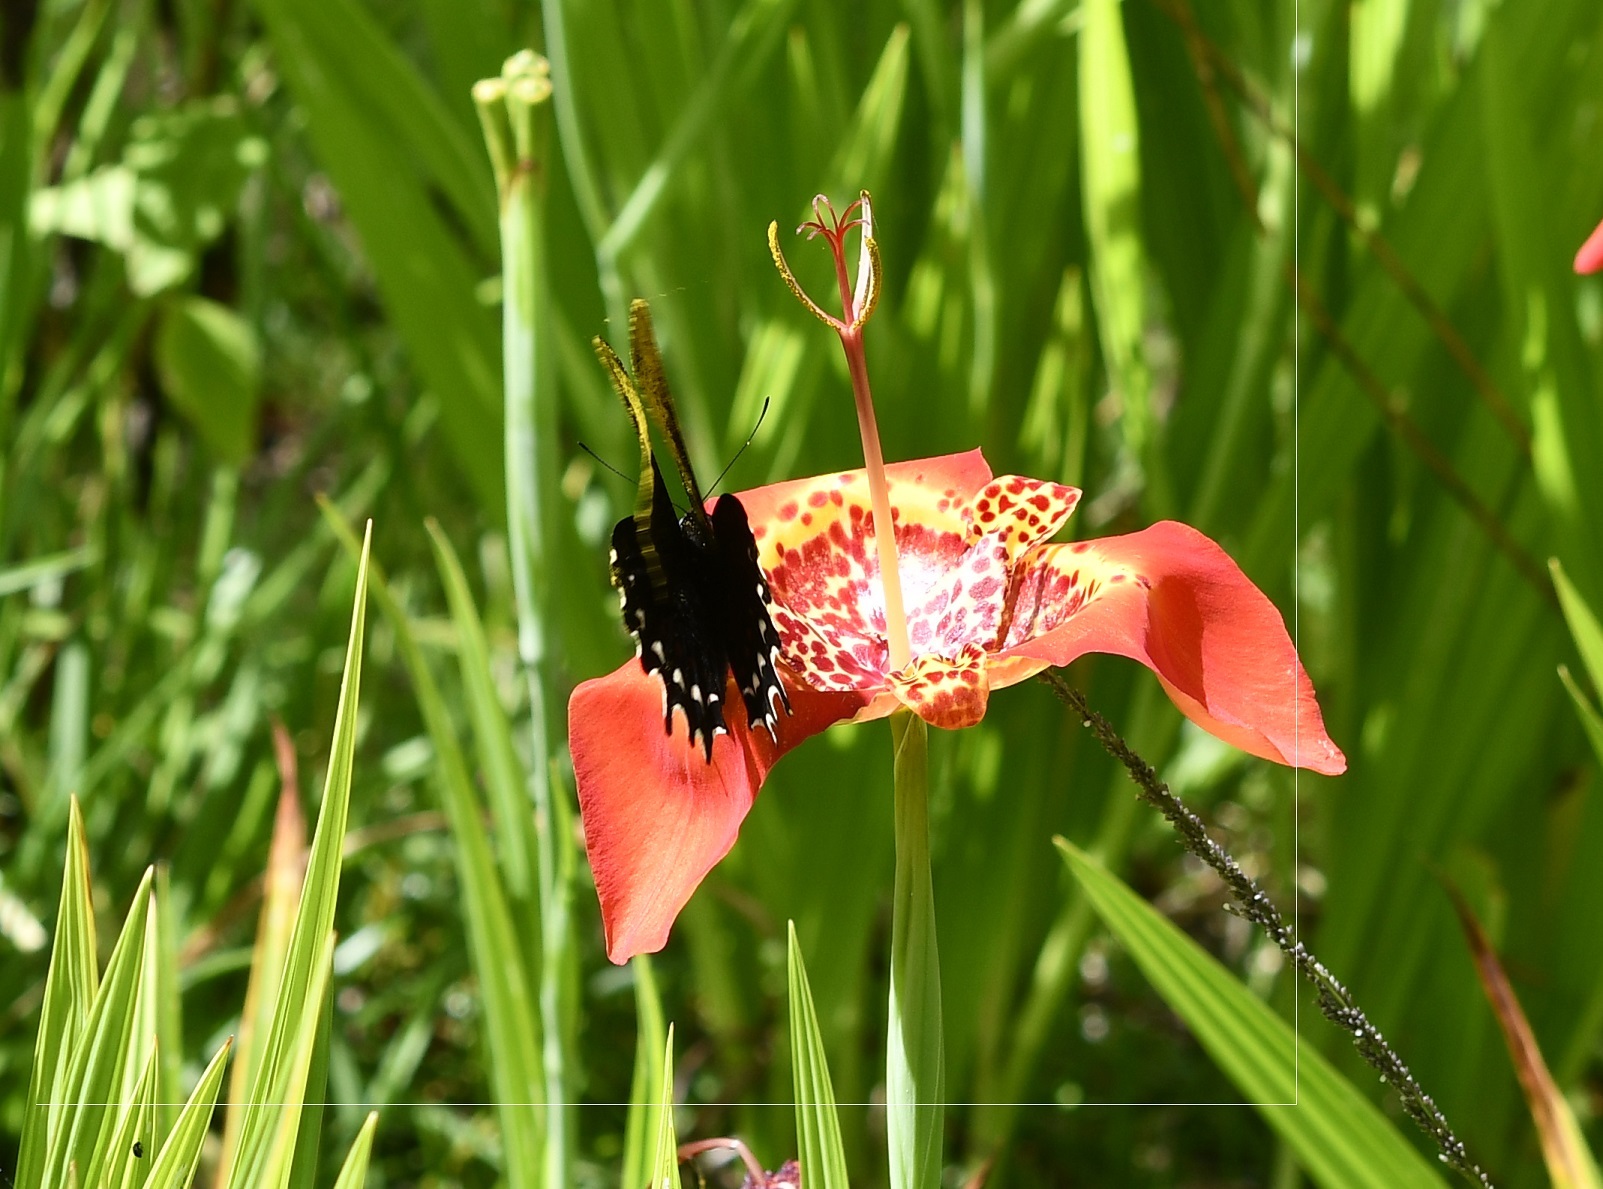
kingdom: Animalia
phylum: Arthropoda
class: Insecta
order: Lepidoptera
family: Papilionidae
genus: Heraclides
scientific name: Heraclides
